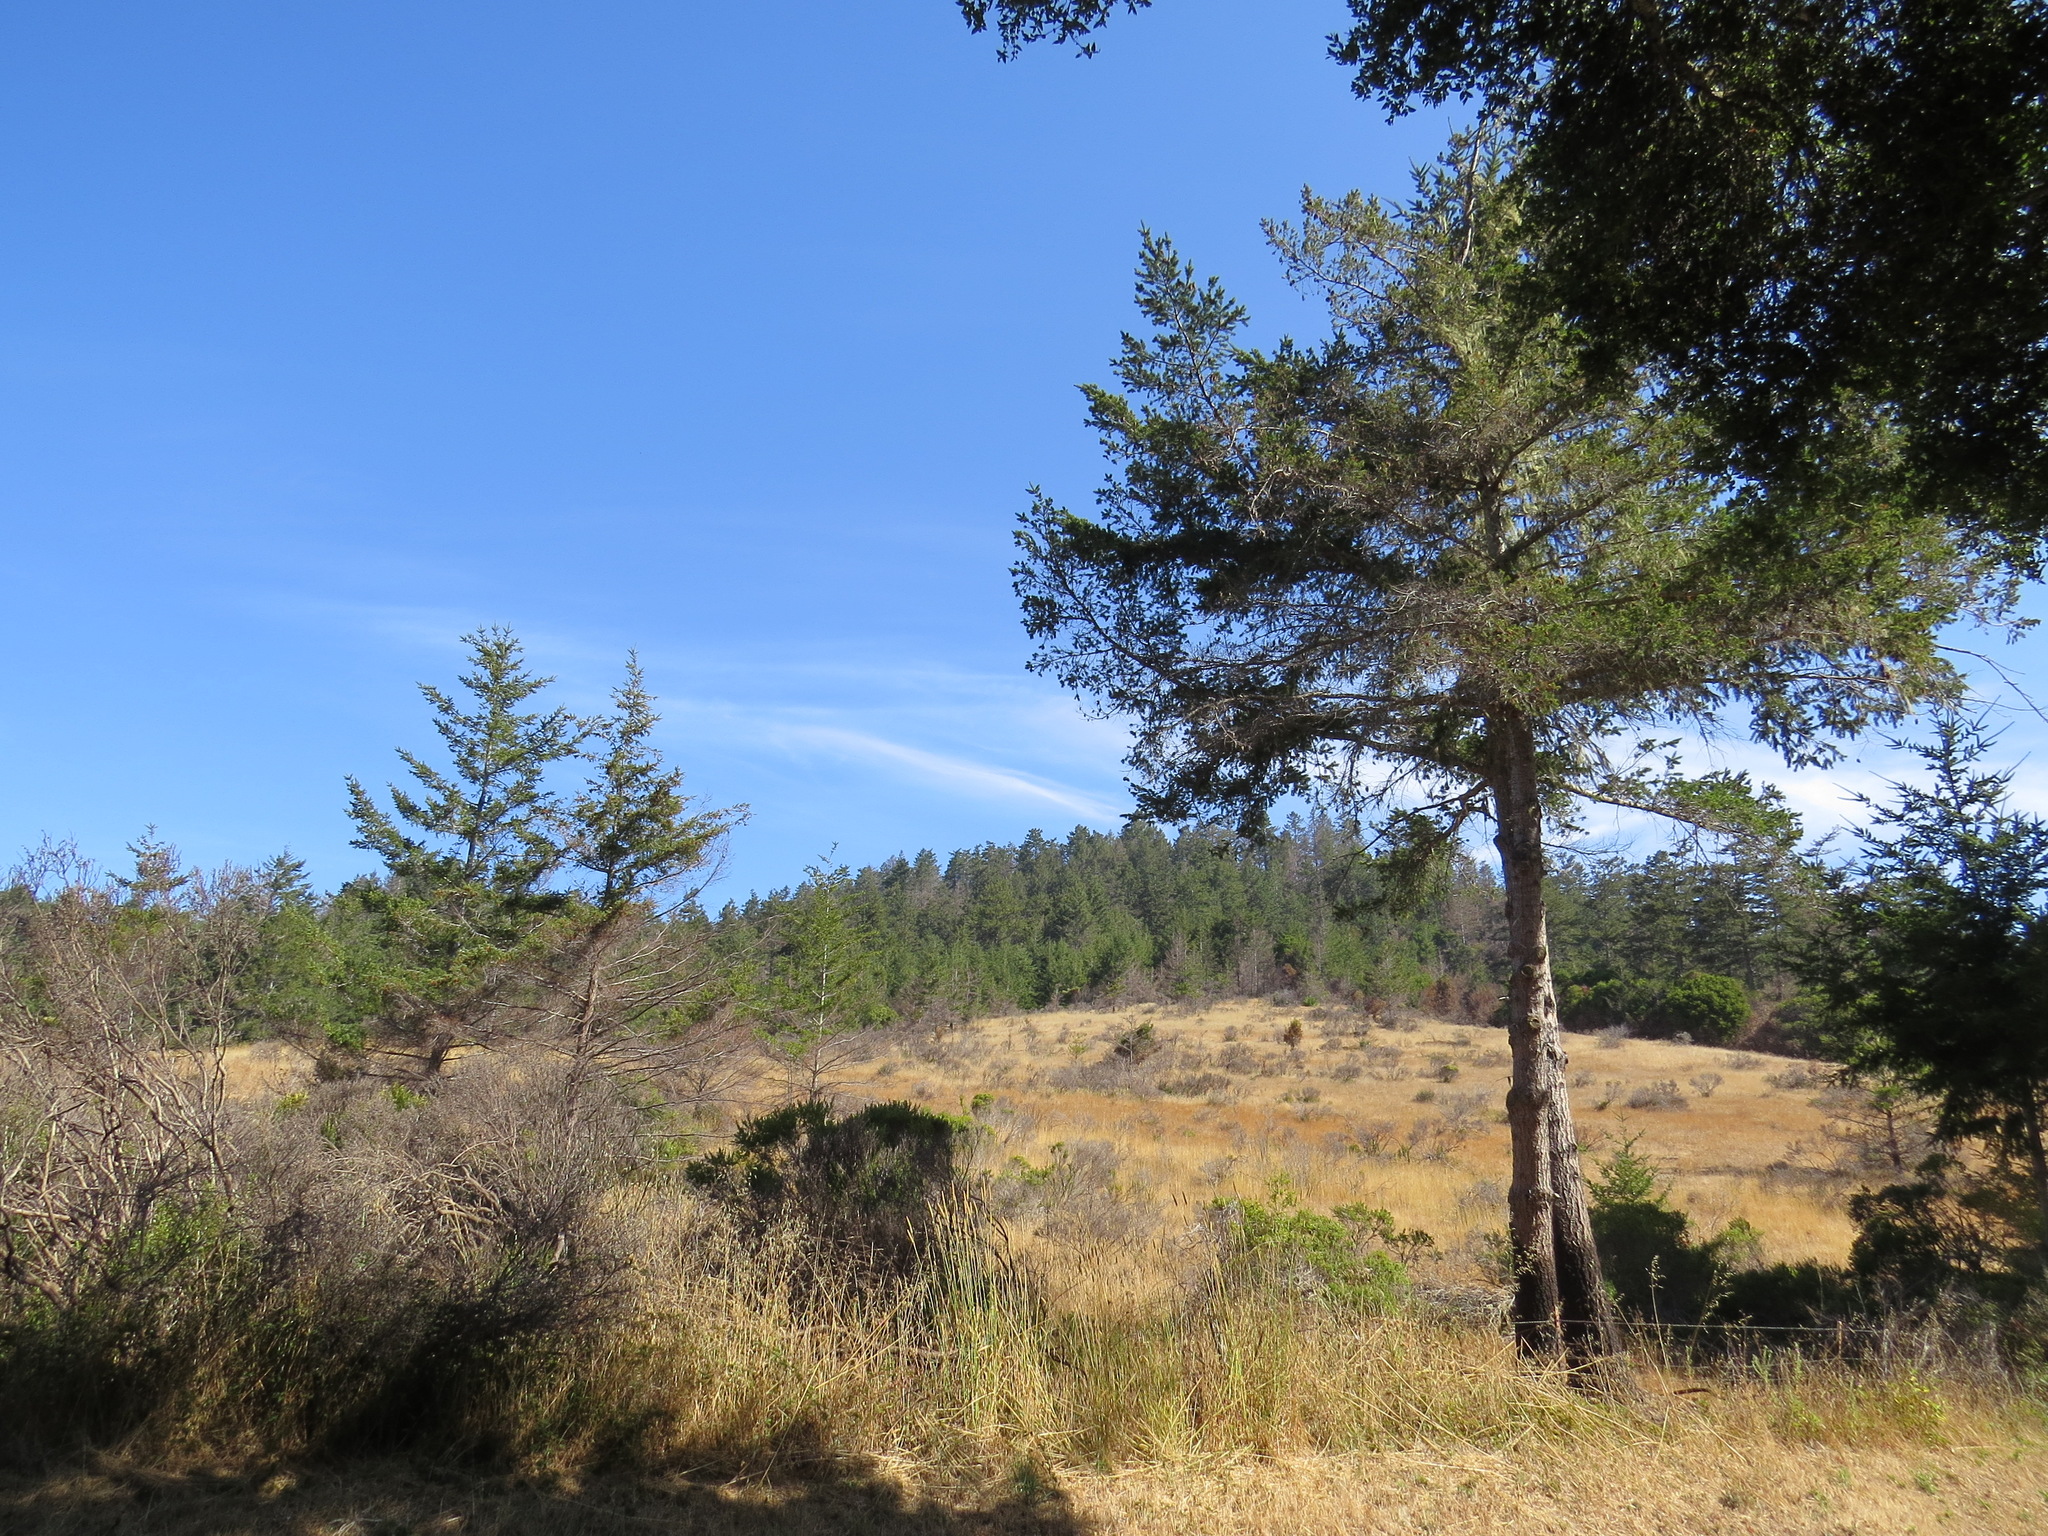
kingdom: Plantae
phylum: Tracheophyta
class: Pinopsida
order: Pinales
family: Pinaceae
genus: Pseudotsuga
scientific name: Pseudotsuga menziesii
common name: Douglas fir
